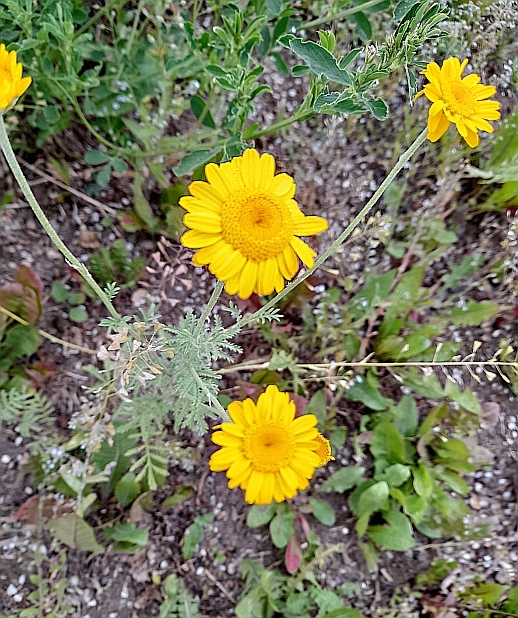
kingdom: Plantae
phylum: Tracheophyta
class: Magnoliopsida
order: Asterales
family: Asteraceae
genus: Cota
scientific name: Cota tinctoria
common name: Golden chamomile
